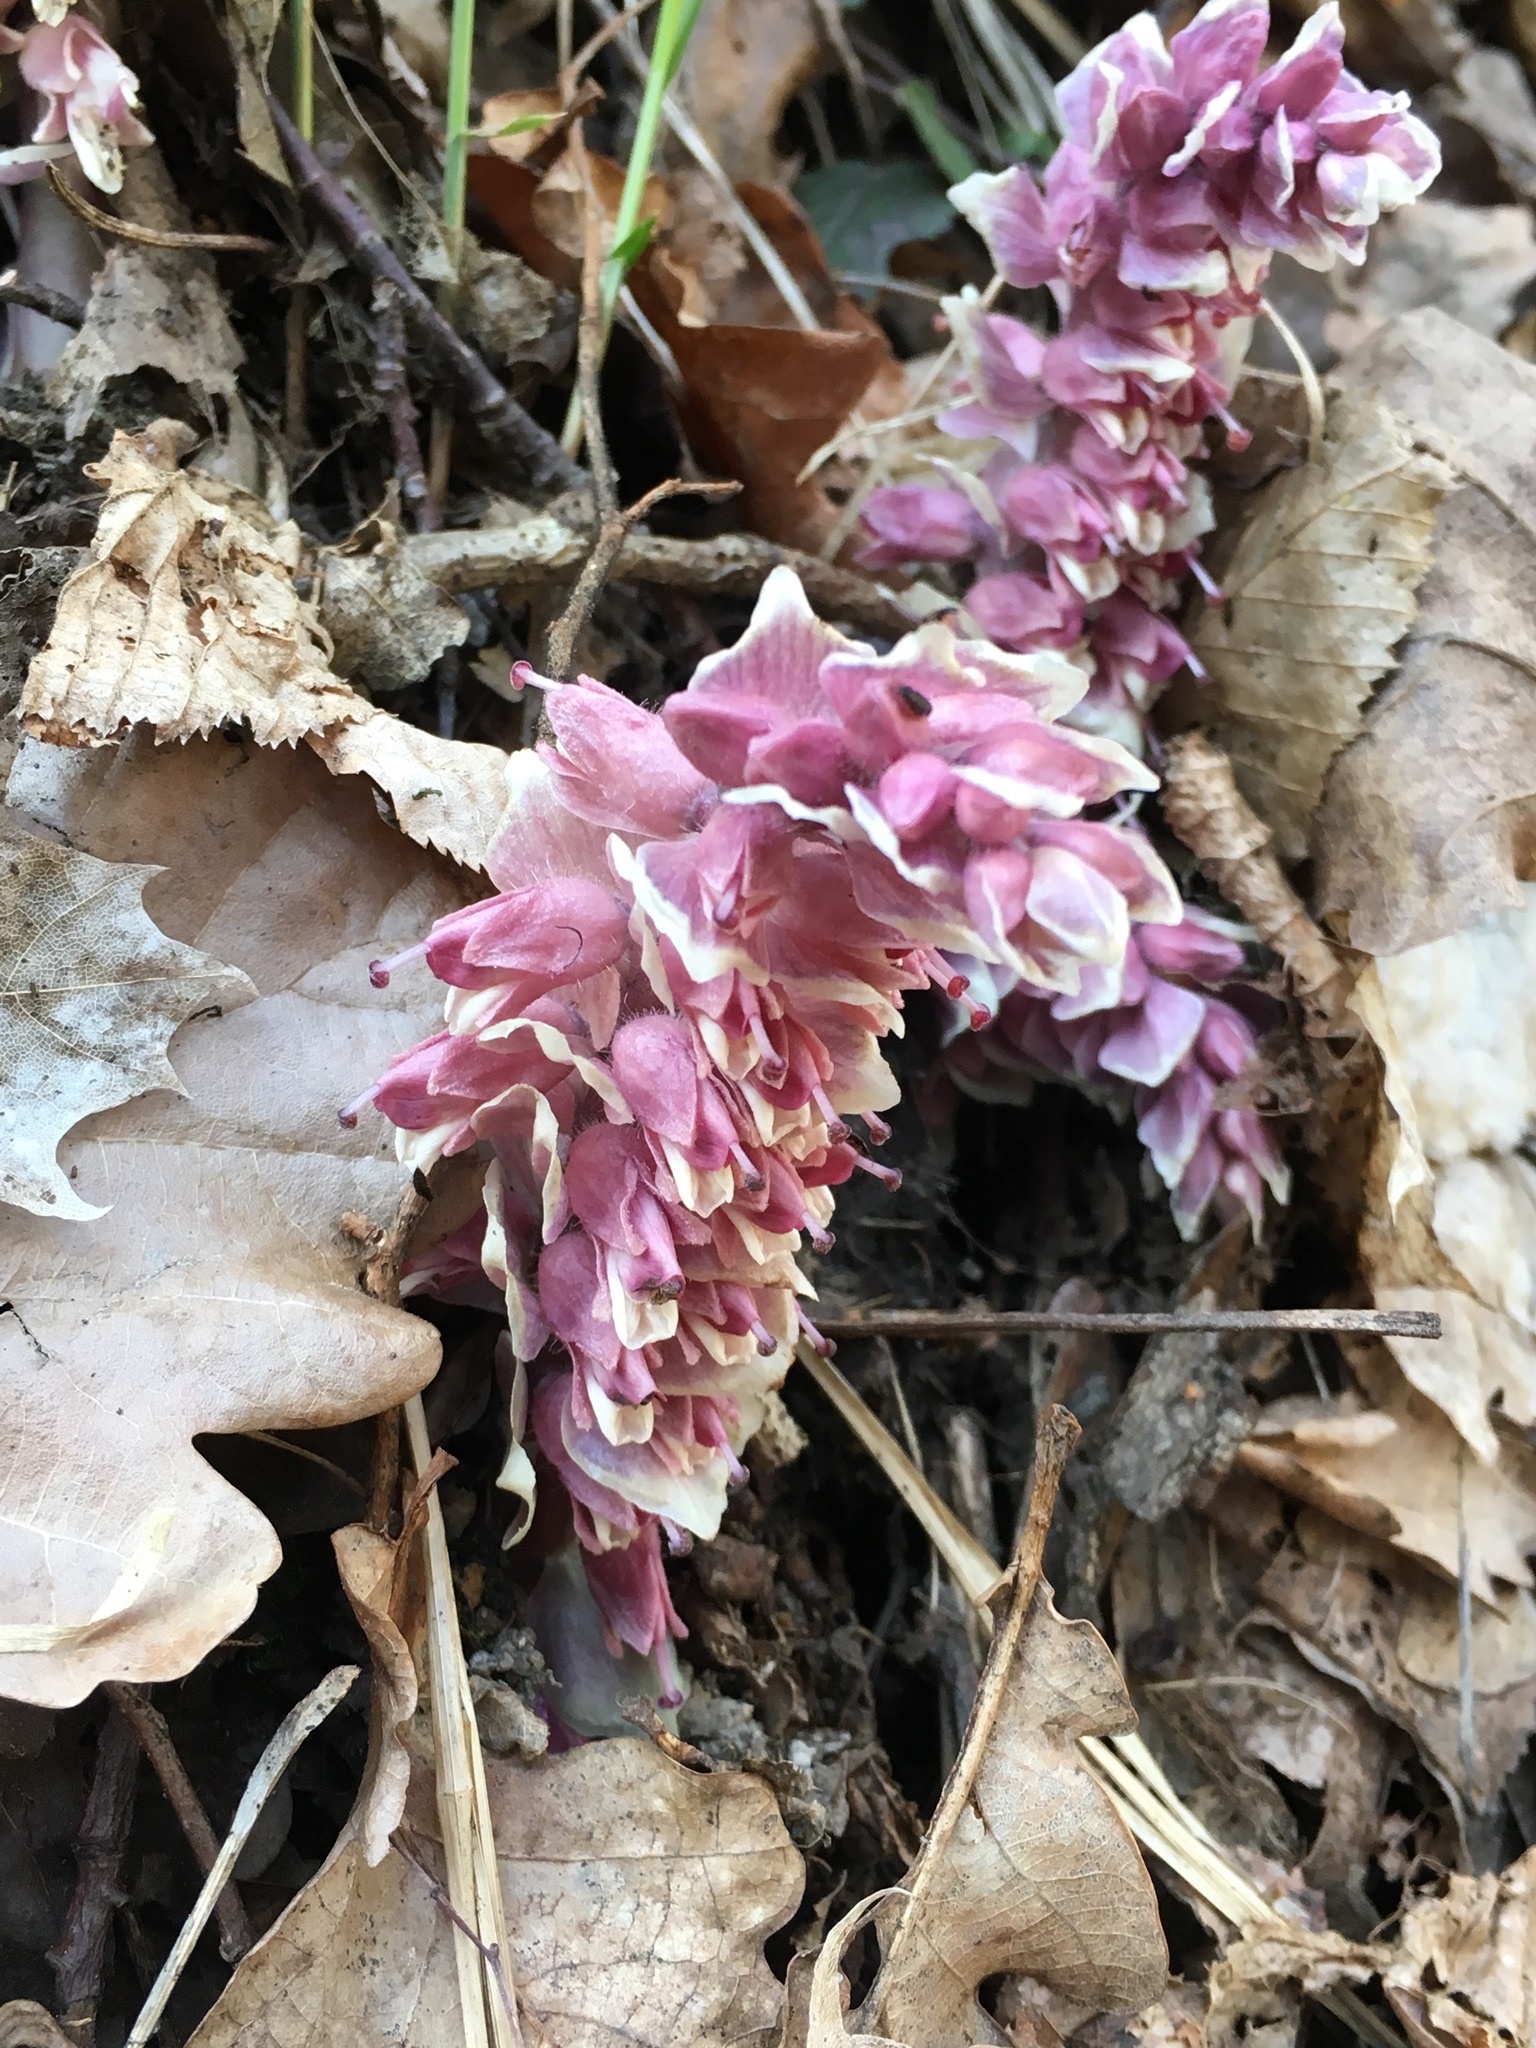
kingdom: Plantae
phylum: Tracheophyta
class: Magnoliopsida
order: Lamiales
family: Orobanchaceae
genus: Lathraea
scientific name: Lathraea squamaria
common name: Toothwort
